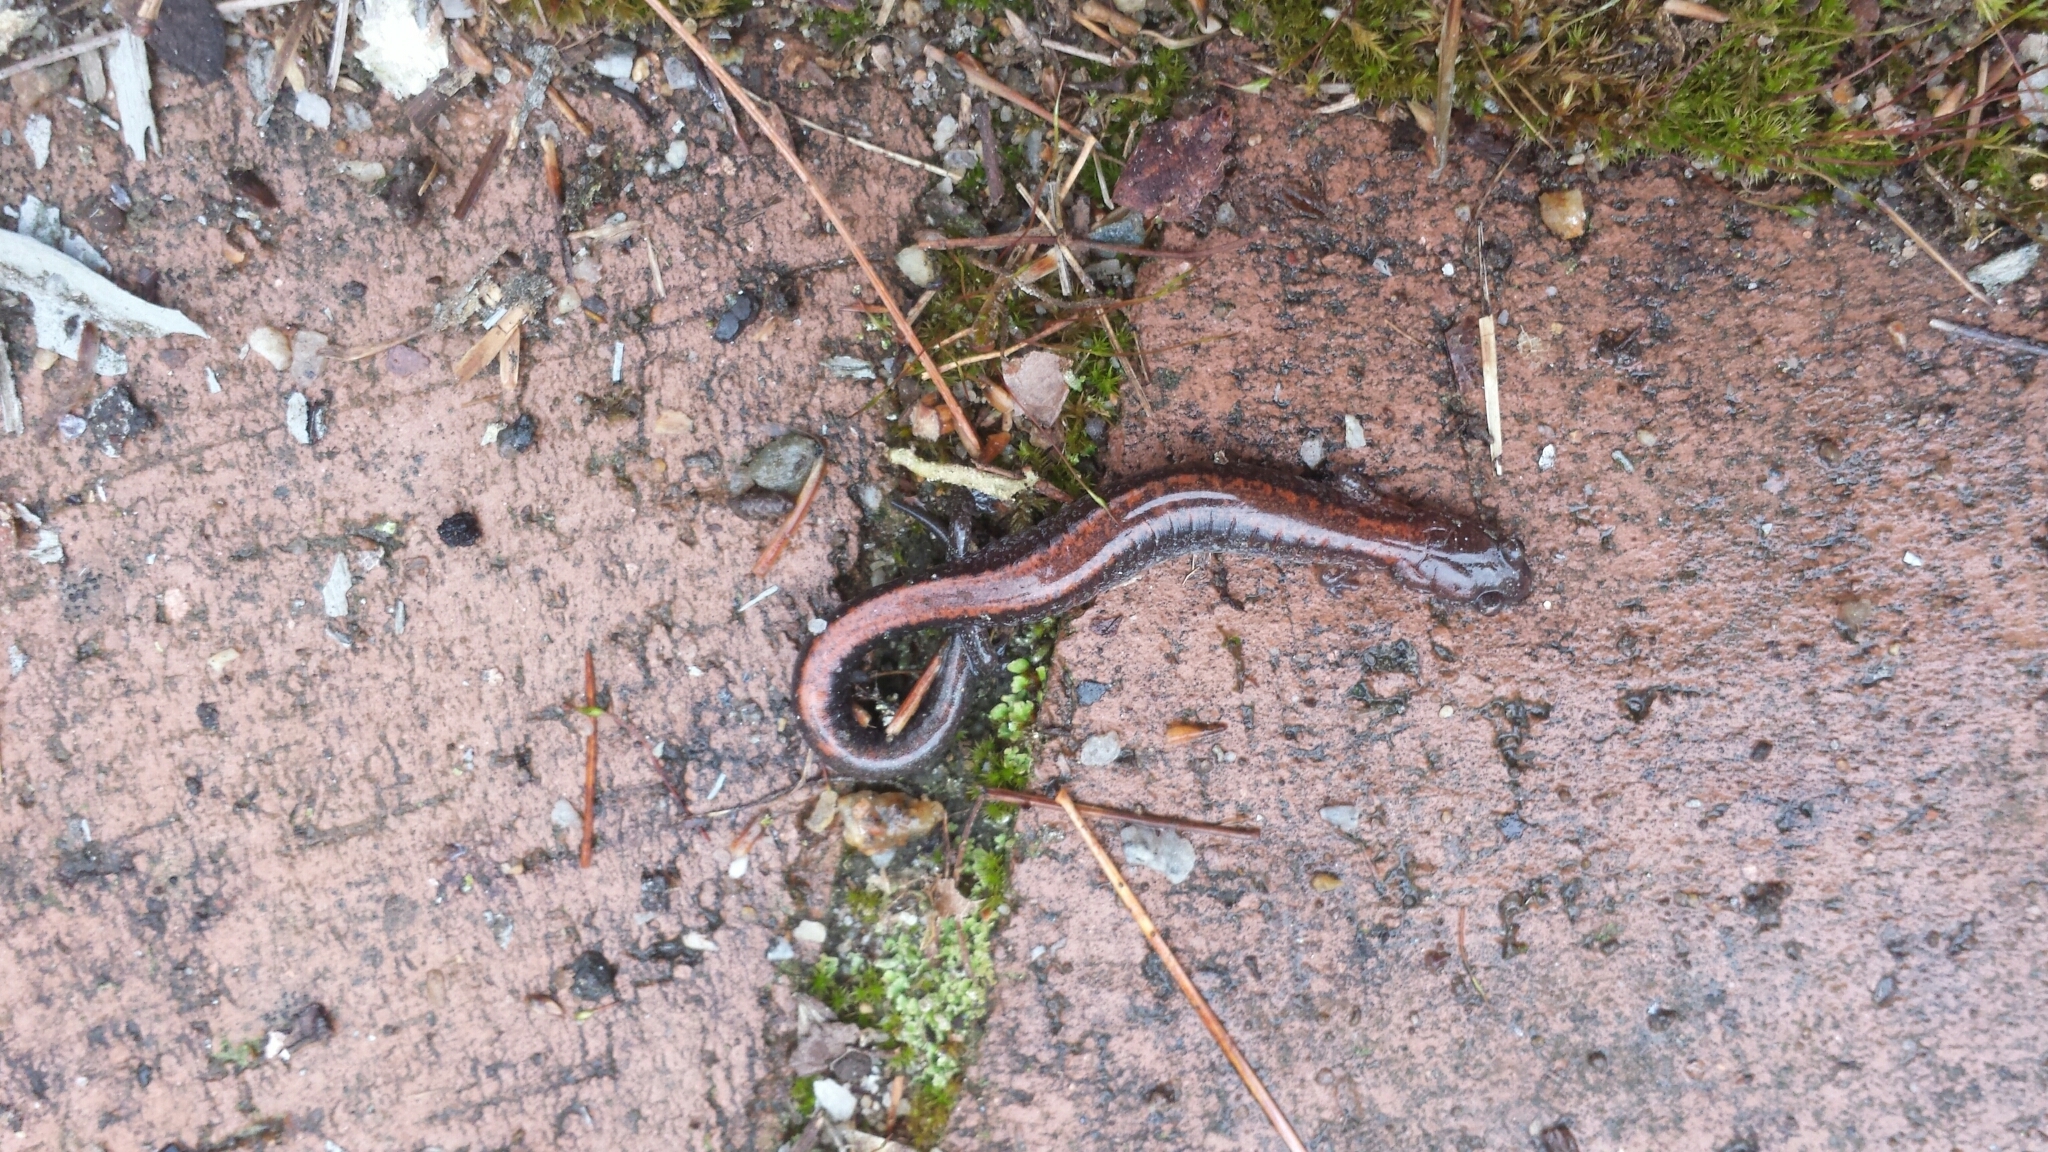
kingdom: Animalia
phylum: Chordata
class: Amphibia
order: Caudata
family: Plethodontidae
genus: Plethodon
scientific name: Plethodon cinereus
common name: Redback salamander
